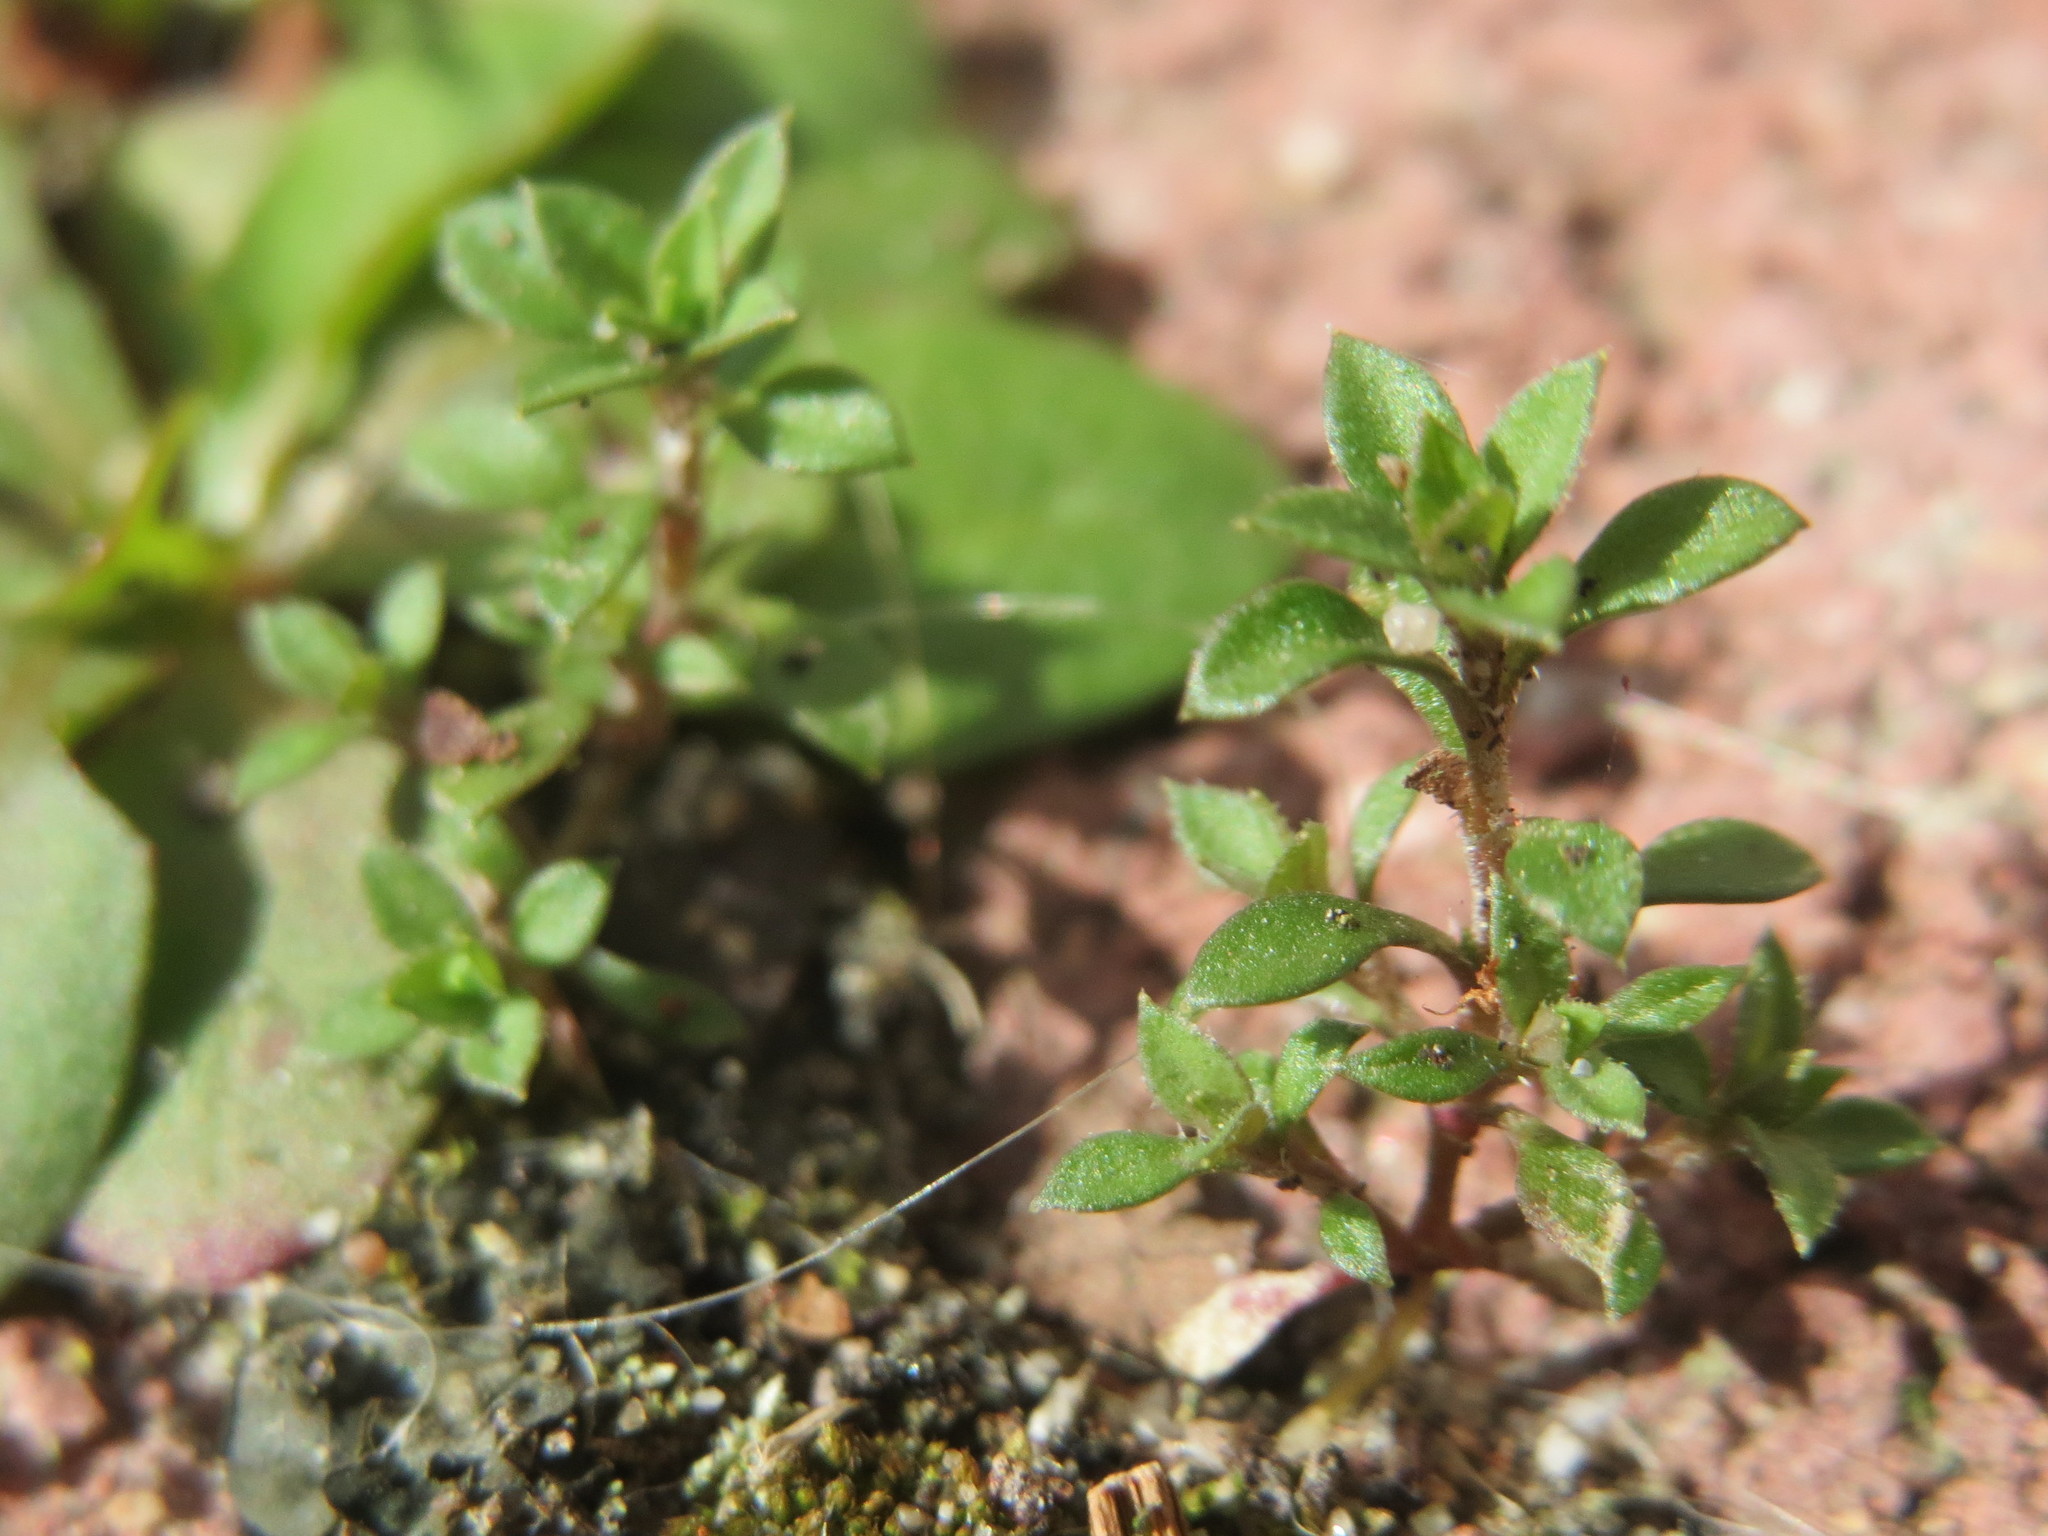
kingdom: Plantae
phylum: Tracheophyta
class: Magnoliopsida
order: Caryophyllales
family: Caryophyllaceae
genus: Arenaria
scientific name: Arenaria serpyllifolia
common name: Thyme-leaved sandwort
